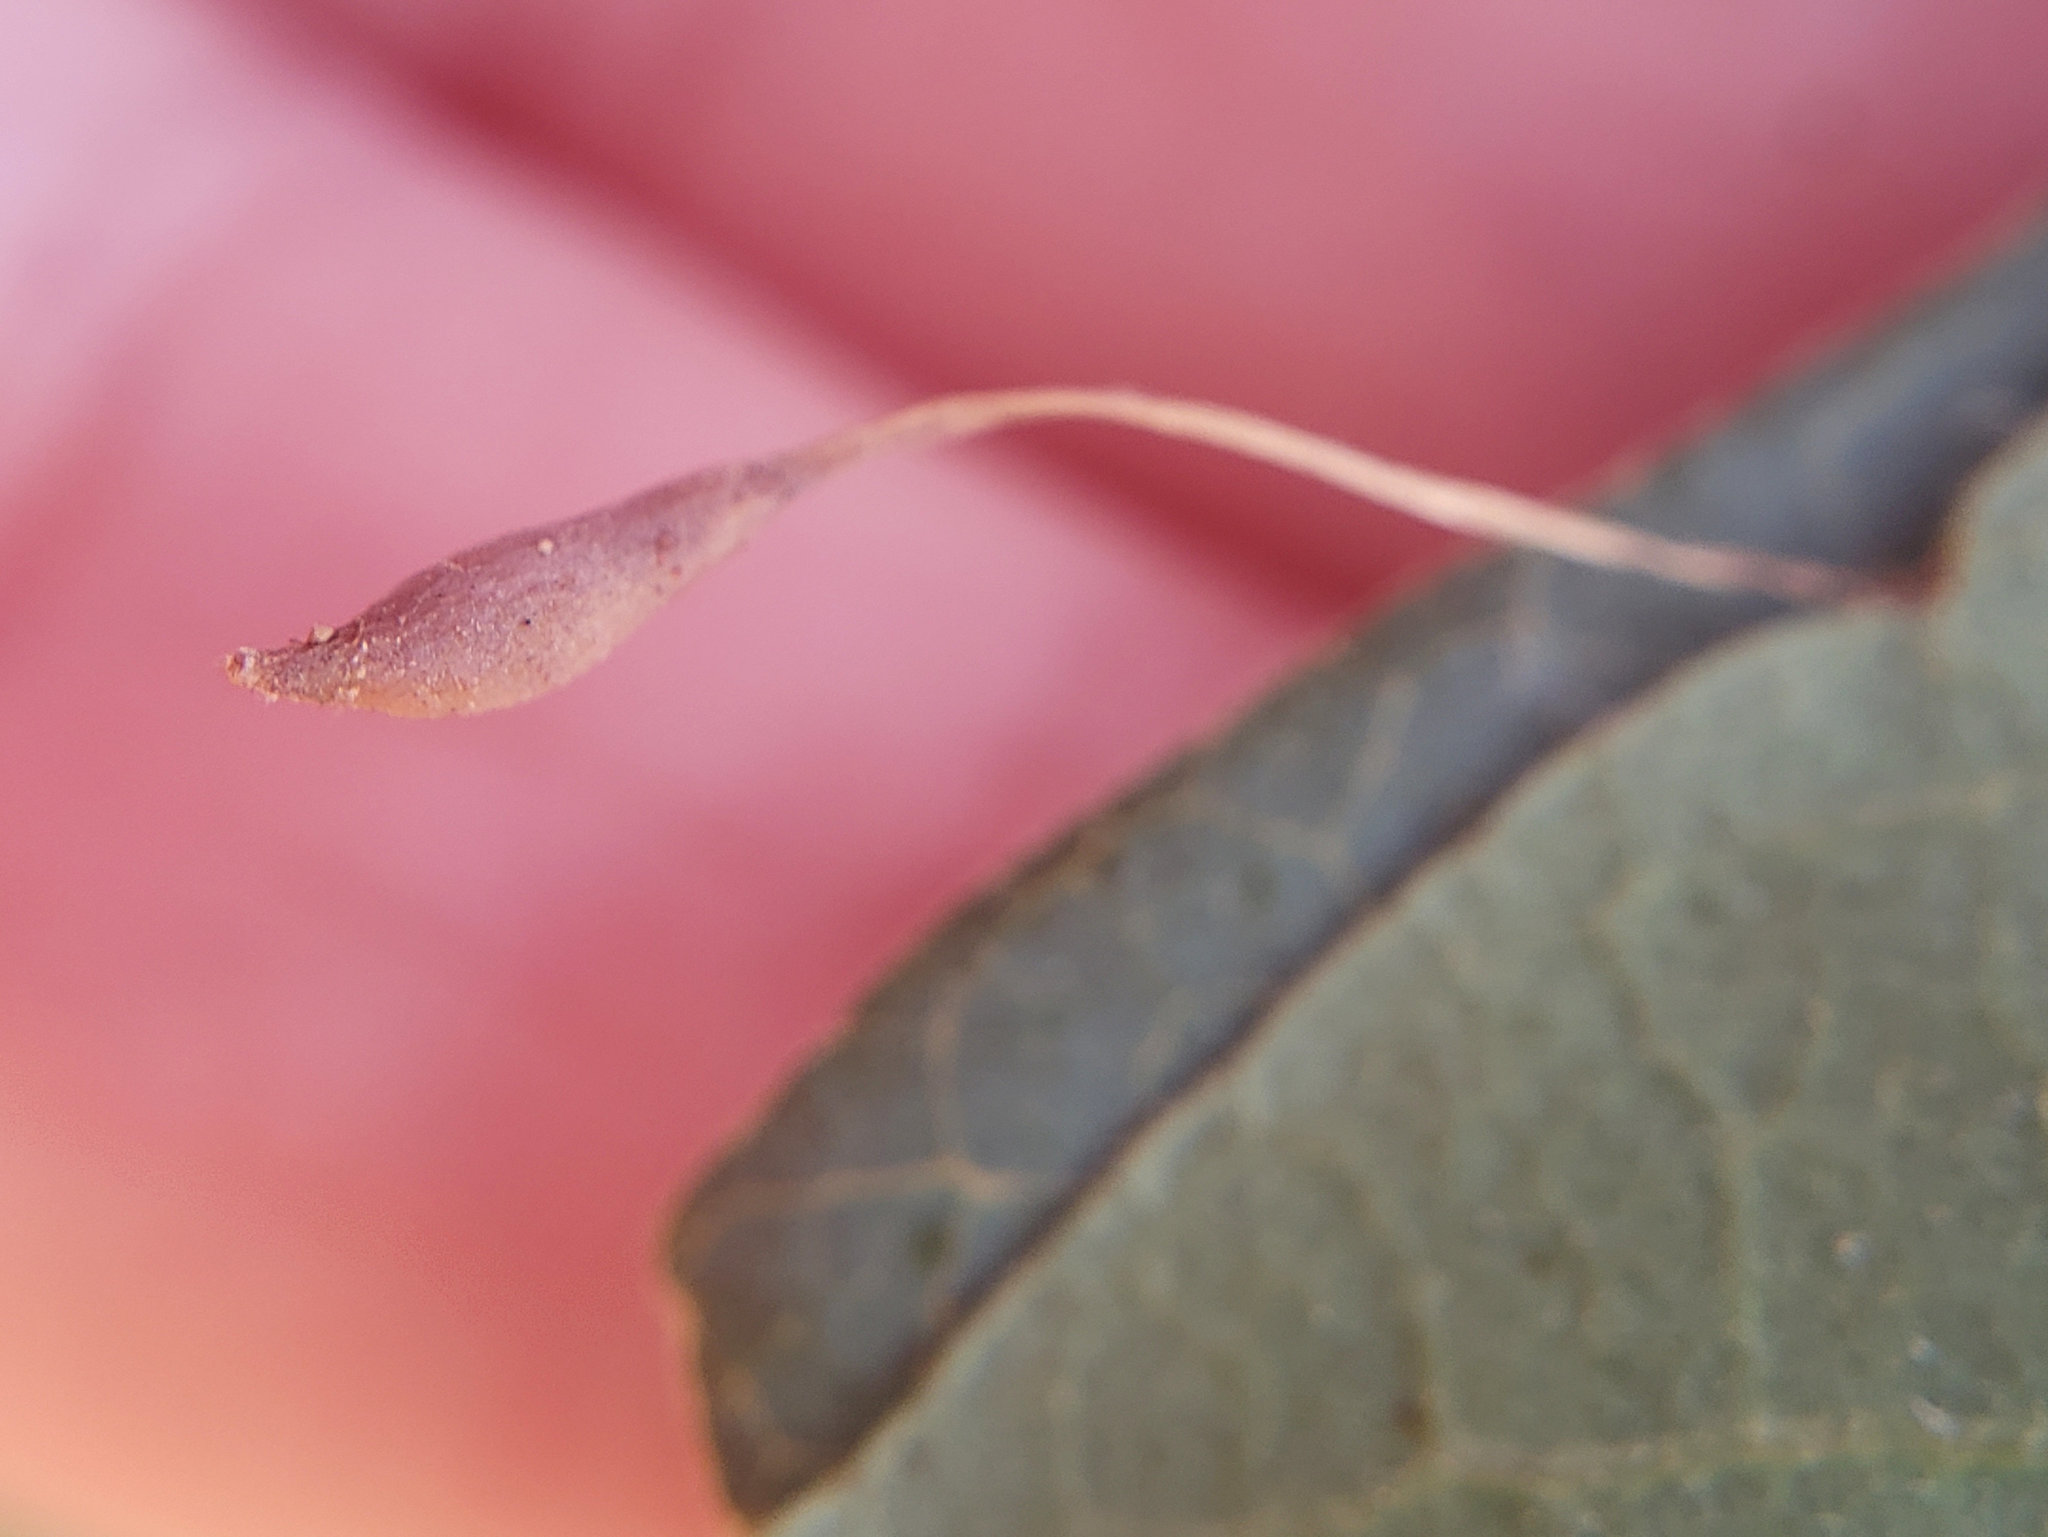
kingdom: Animalia
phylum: Arthropoda
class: Insecta
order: Hymenoptera
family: Cynipidae
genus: Andricus
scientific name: Andricus
